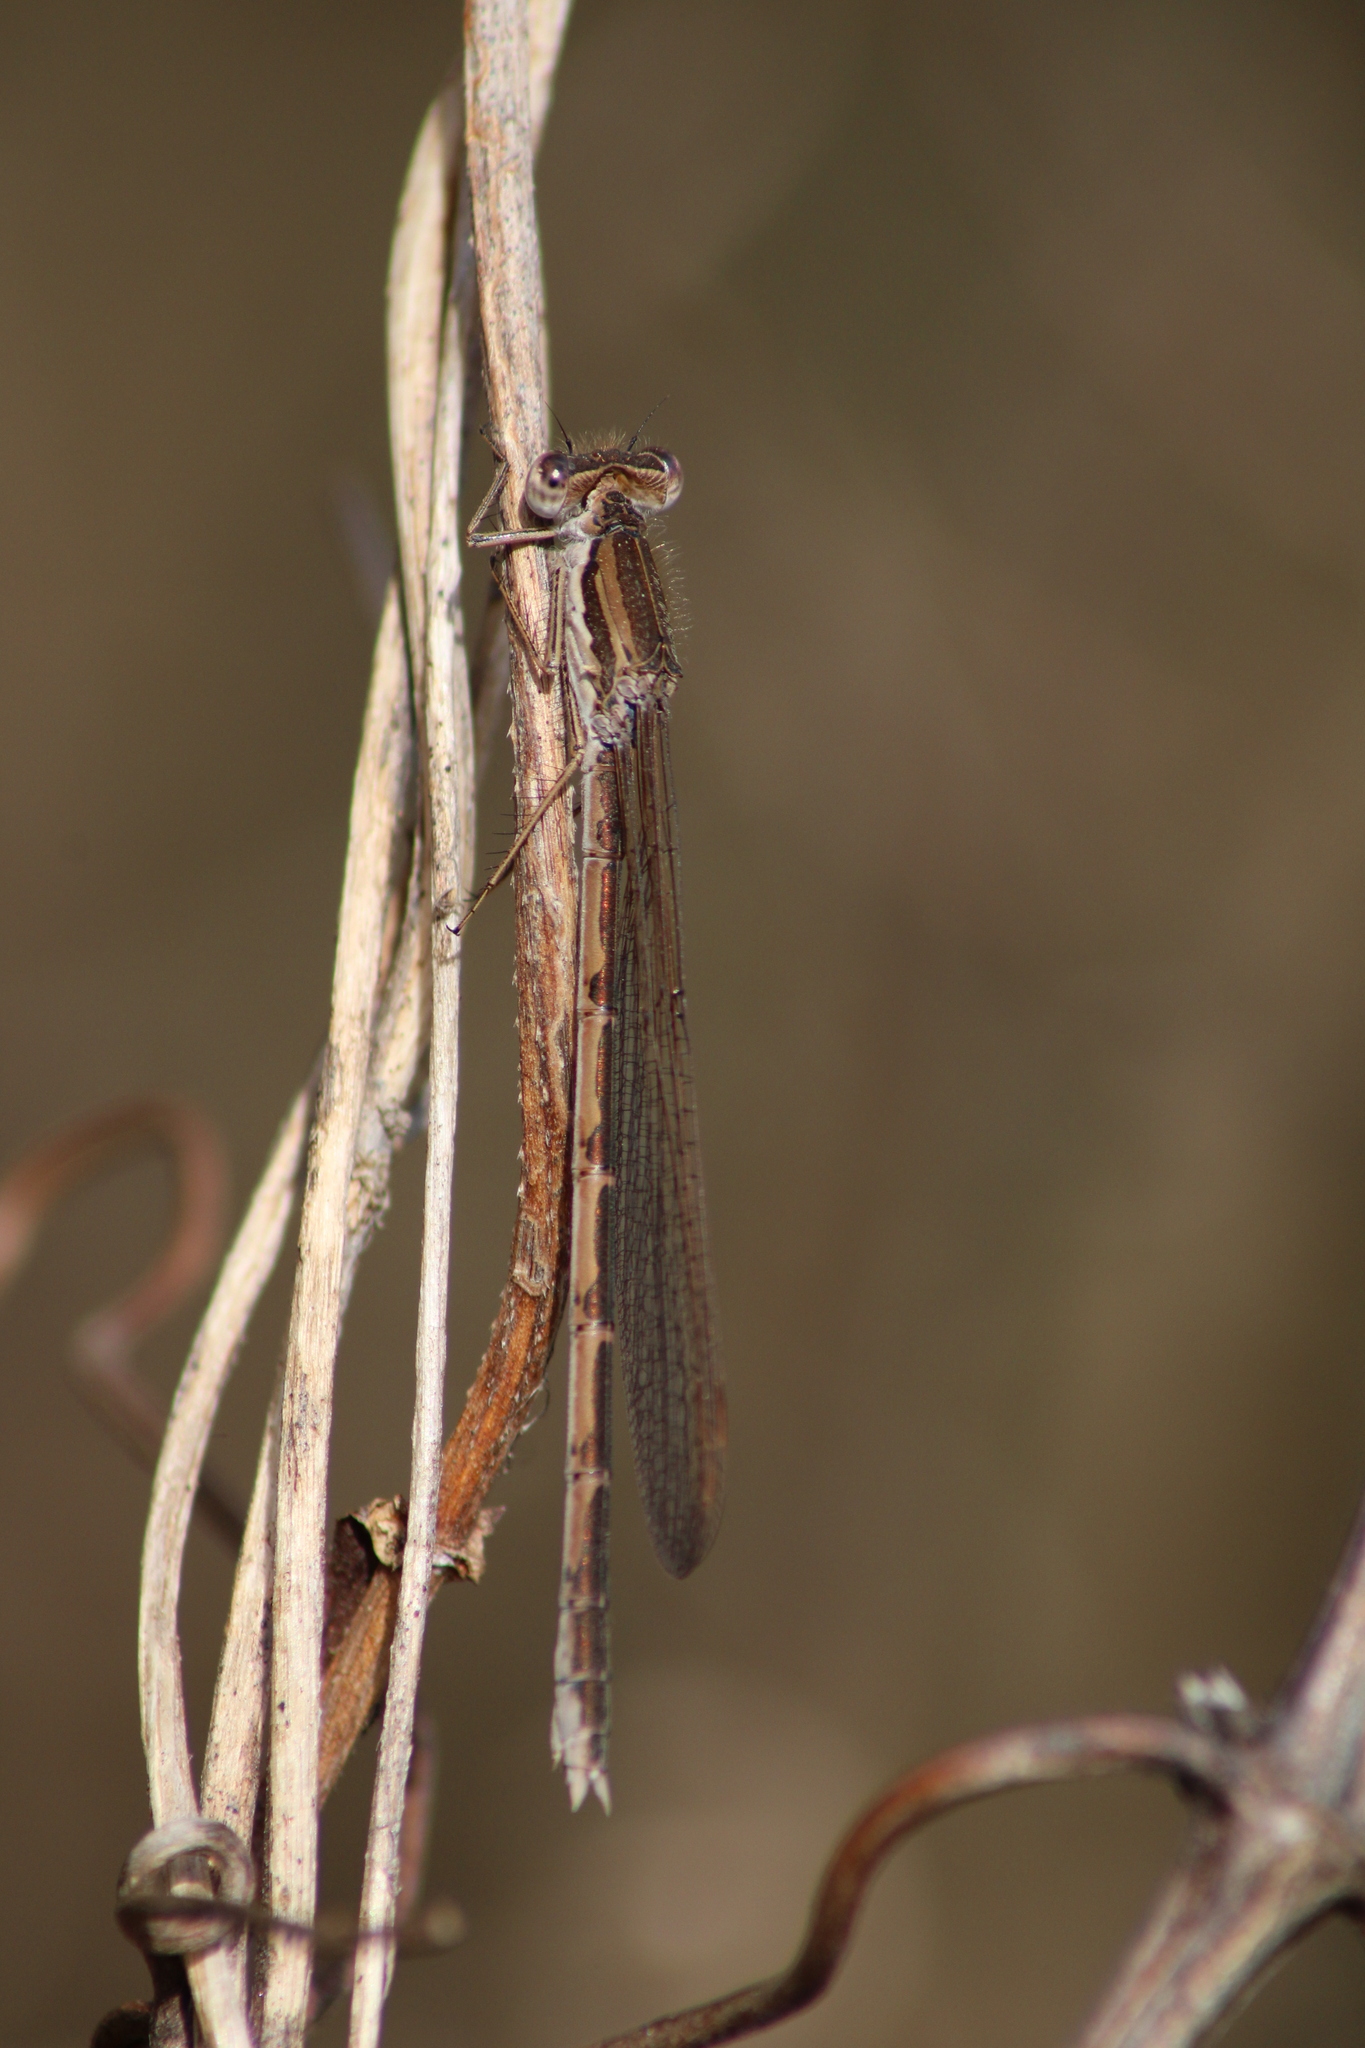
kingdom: Animalia
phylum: Arthropoda
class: Insecta
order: Odonata
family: Lestidae
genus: Sympecma
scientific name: Sympecma fusca
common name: Common winter damsel
